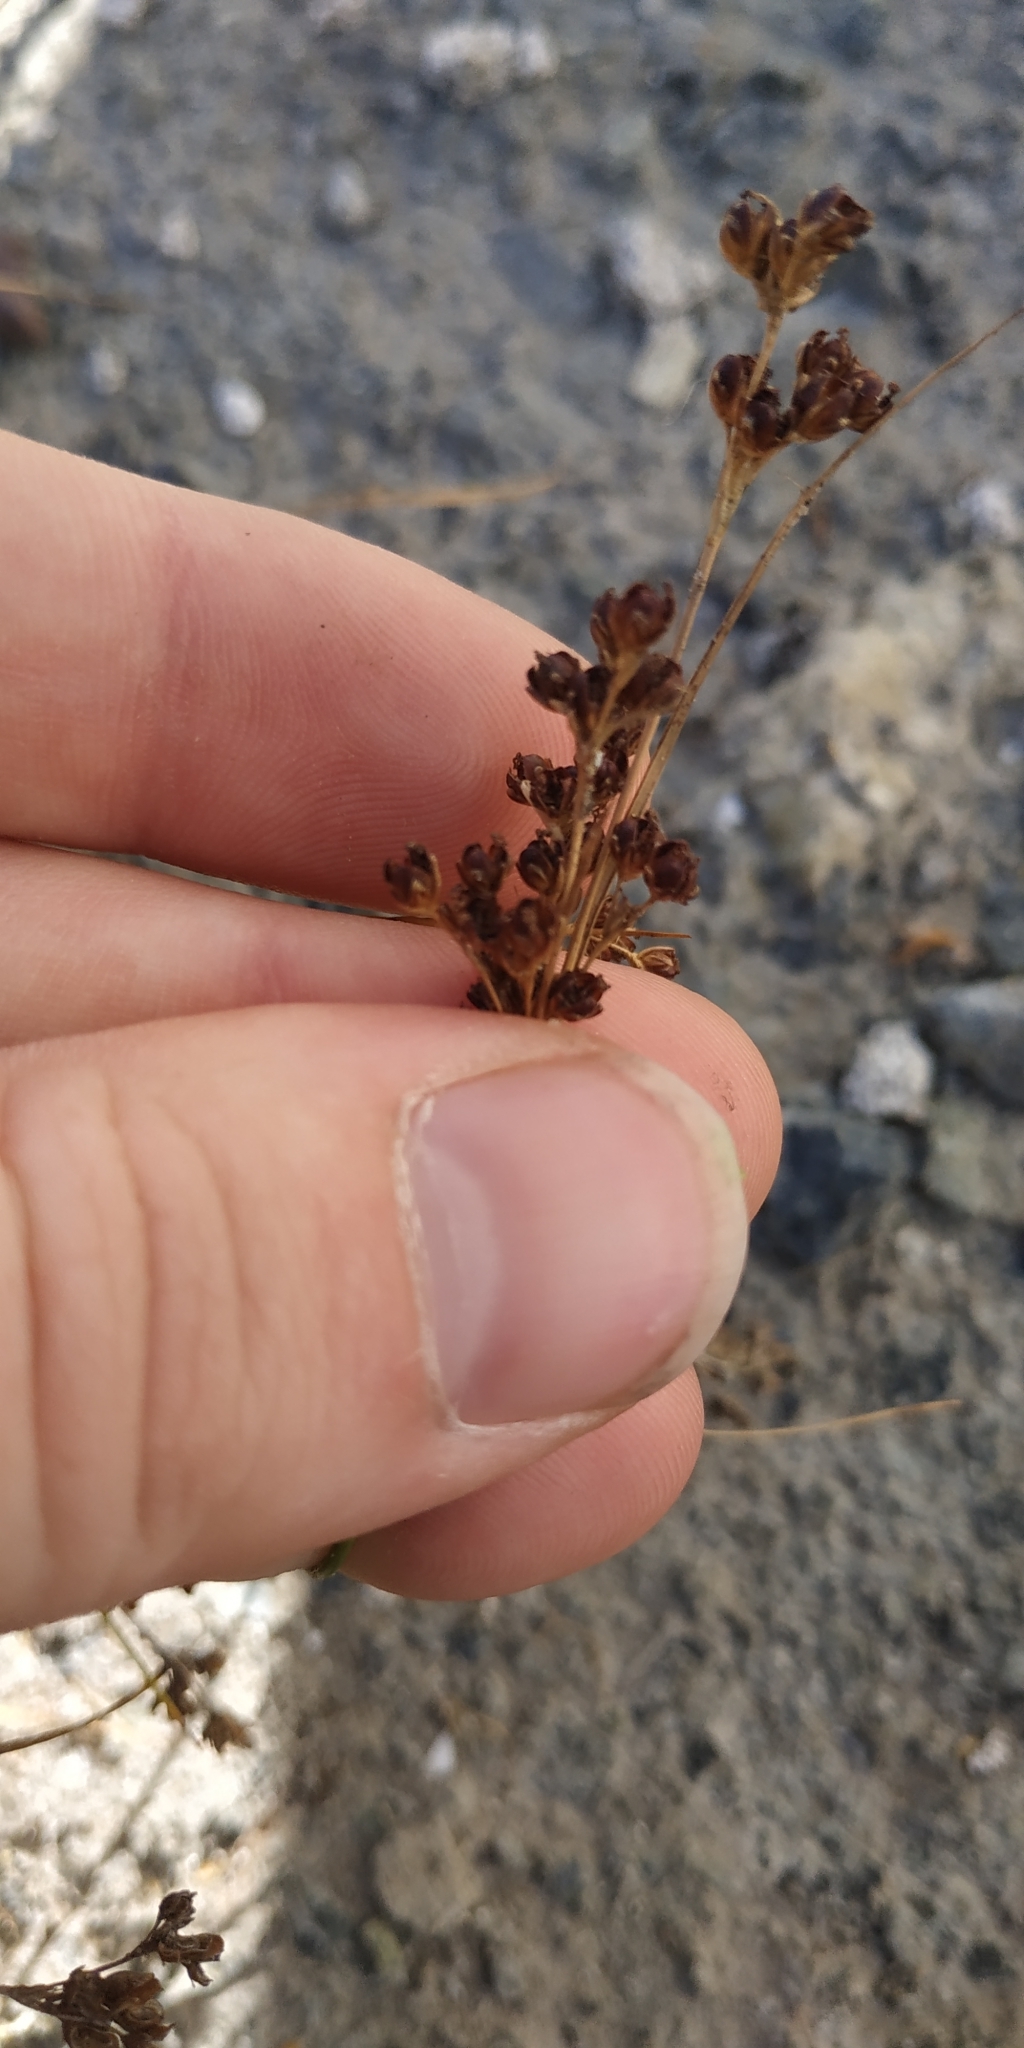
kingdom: Plantae
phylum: Tracheophyta
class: Liliopsida
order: Poales
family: Juncaceae
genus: Juncus
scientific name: Juncus compressus
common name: Round-fruited rush
